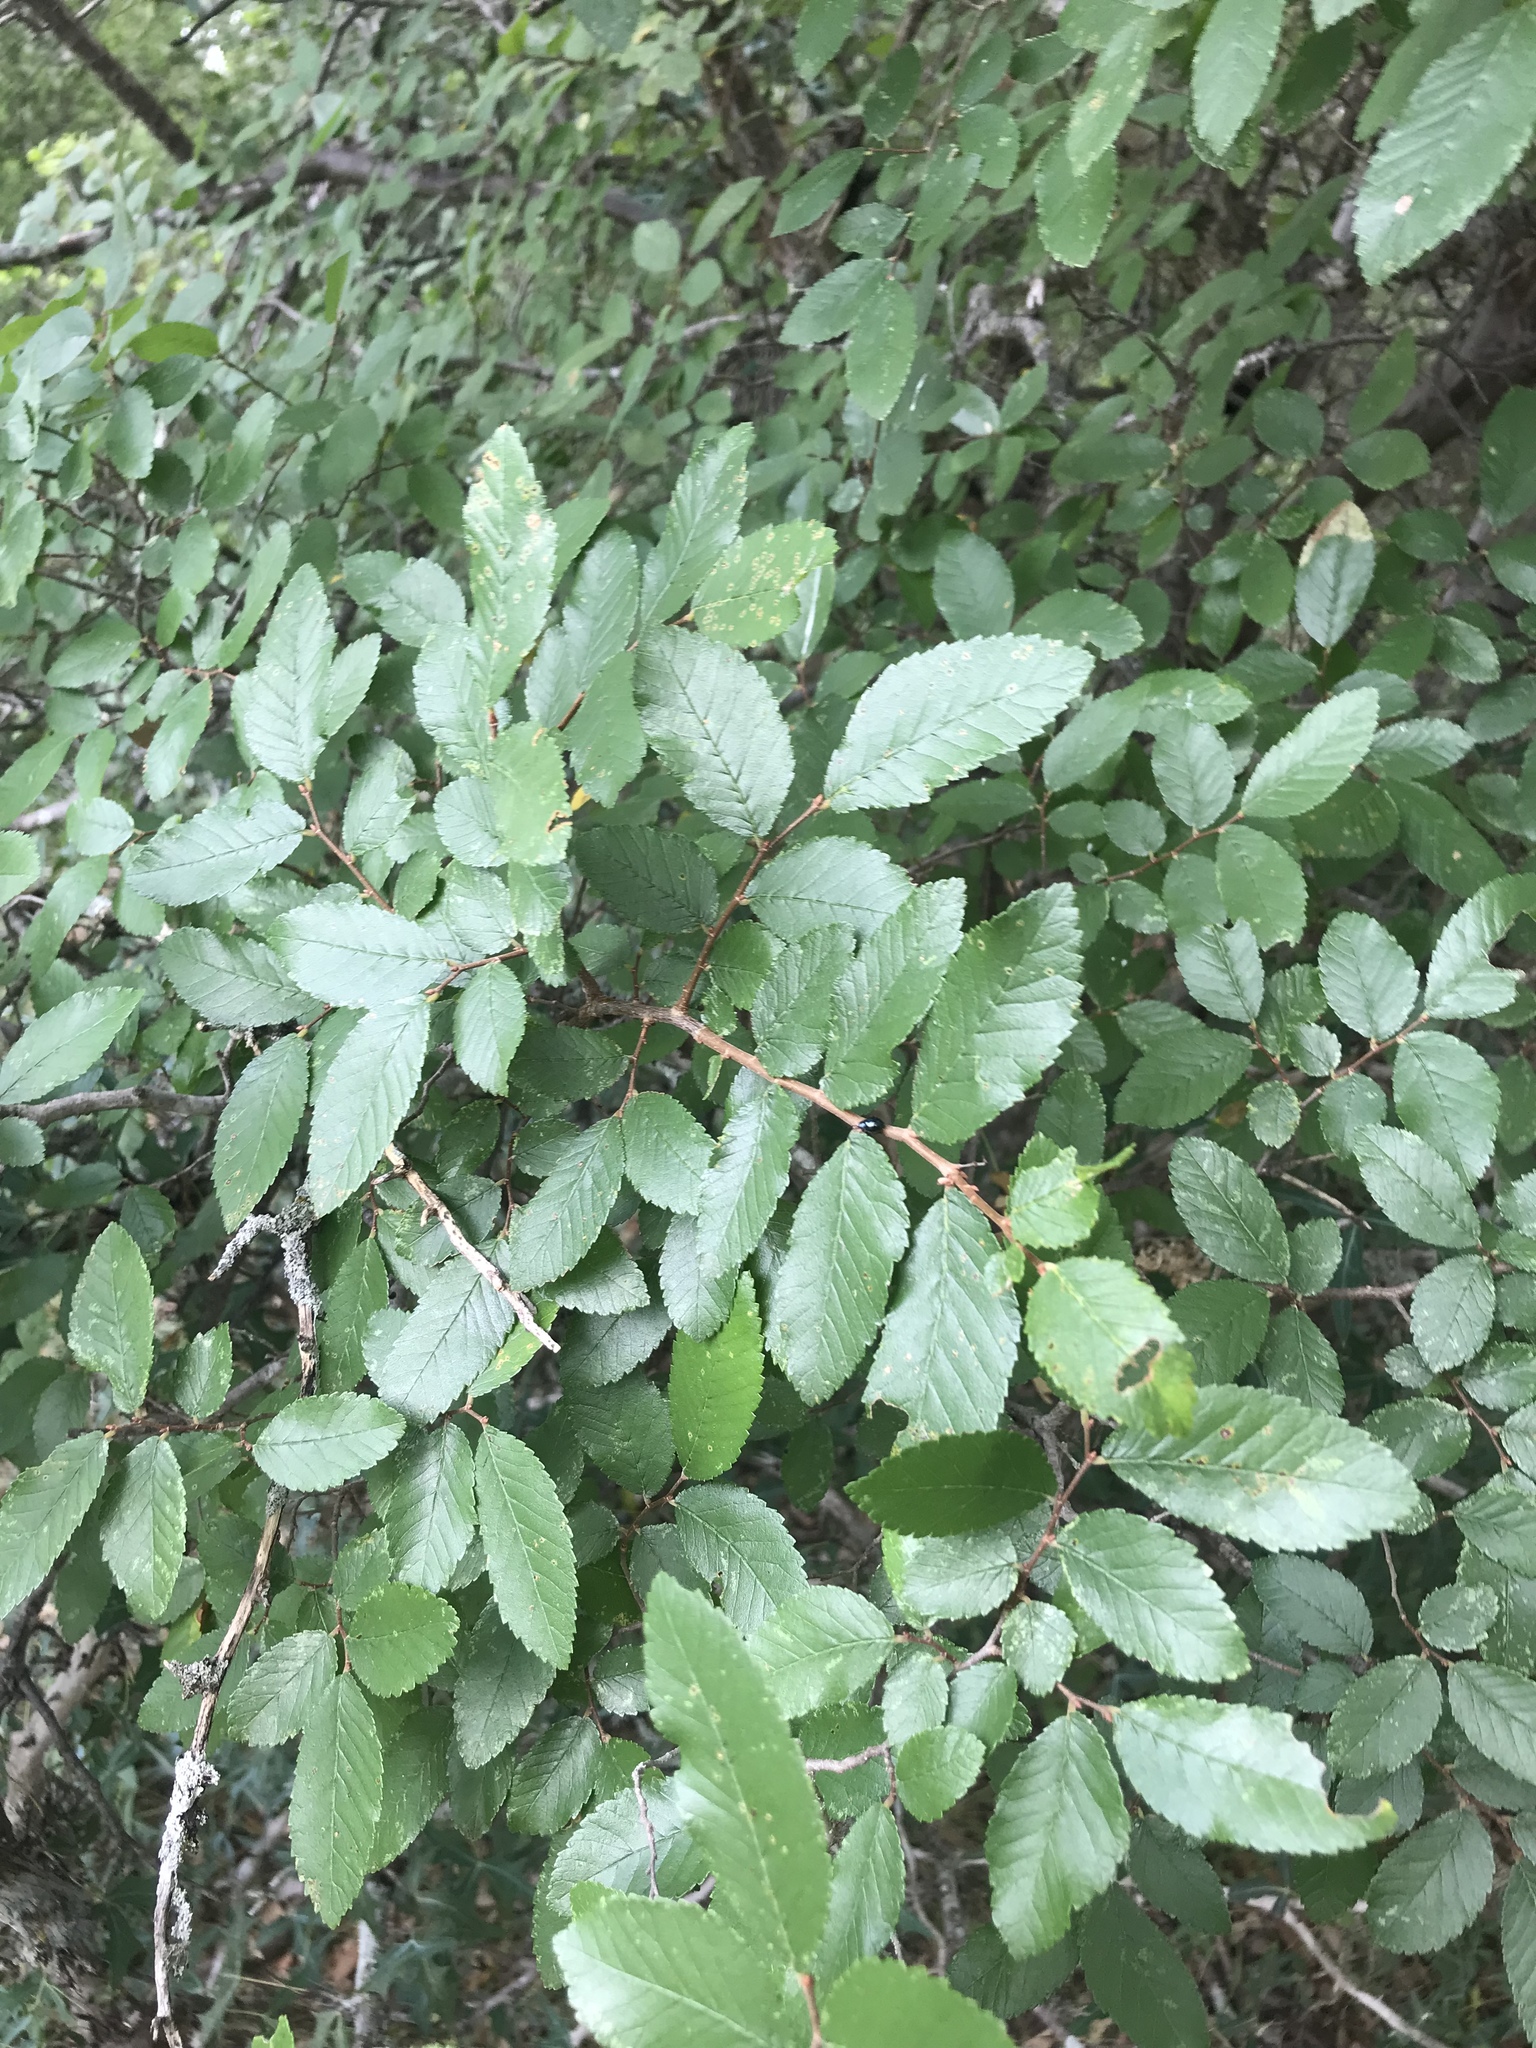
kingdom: Plantae
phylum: Tracheophyta
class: Magnoliopsida
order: Rosales
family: Ulmaceae
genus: Ulmus
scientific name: Ulmus crassifolia
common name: Basket elm
